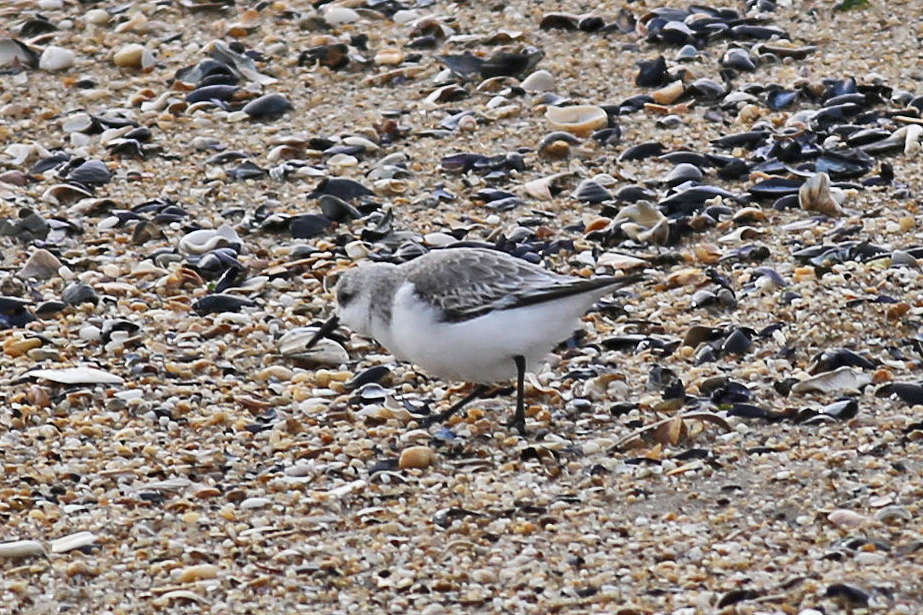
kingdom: Animalia
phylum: Chordata
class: Aves
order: Charadriiformes
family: Scolopacidae
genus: Calidris
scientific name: Calidris alba
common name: Sanderling
